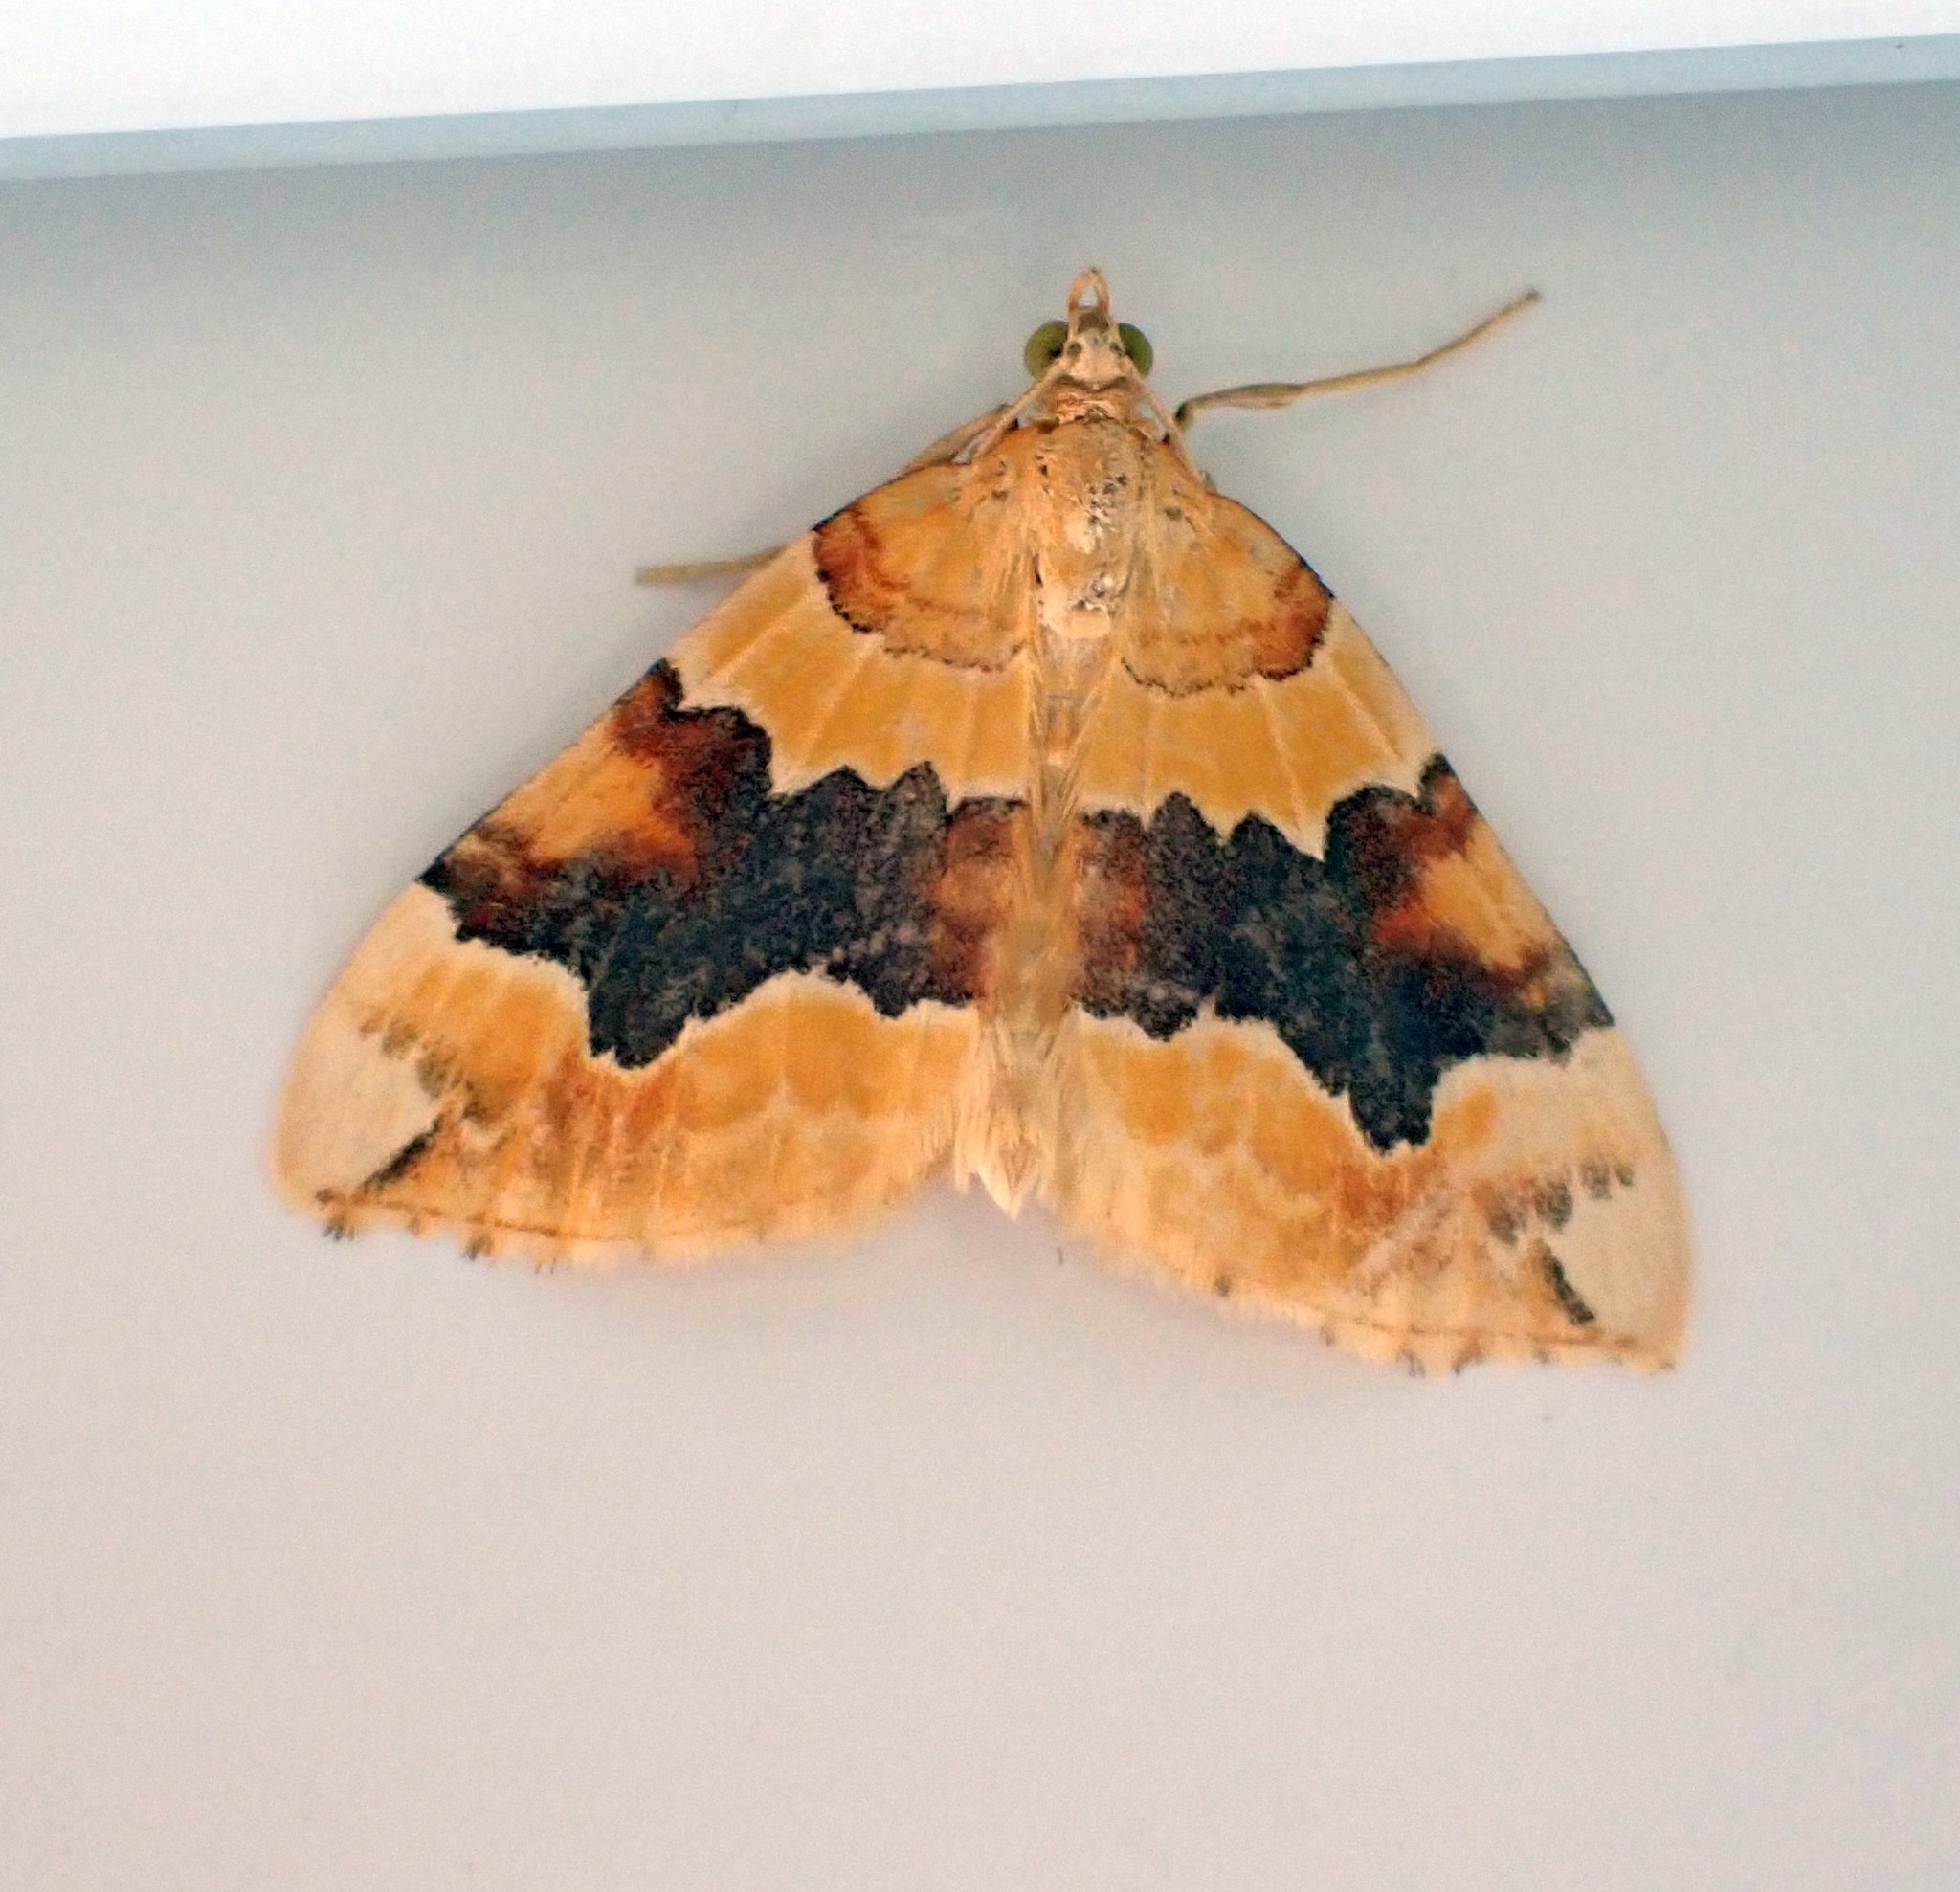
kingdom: Animalia
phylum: Arthropoda
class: Insecta
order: Lepidoptera
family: Geometridae
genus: Cidaria
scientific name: Cidaria fulvata
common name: Barred yellow
